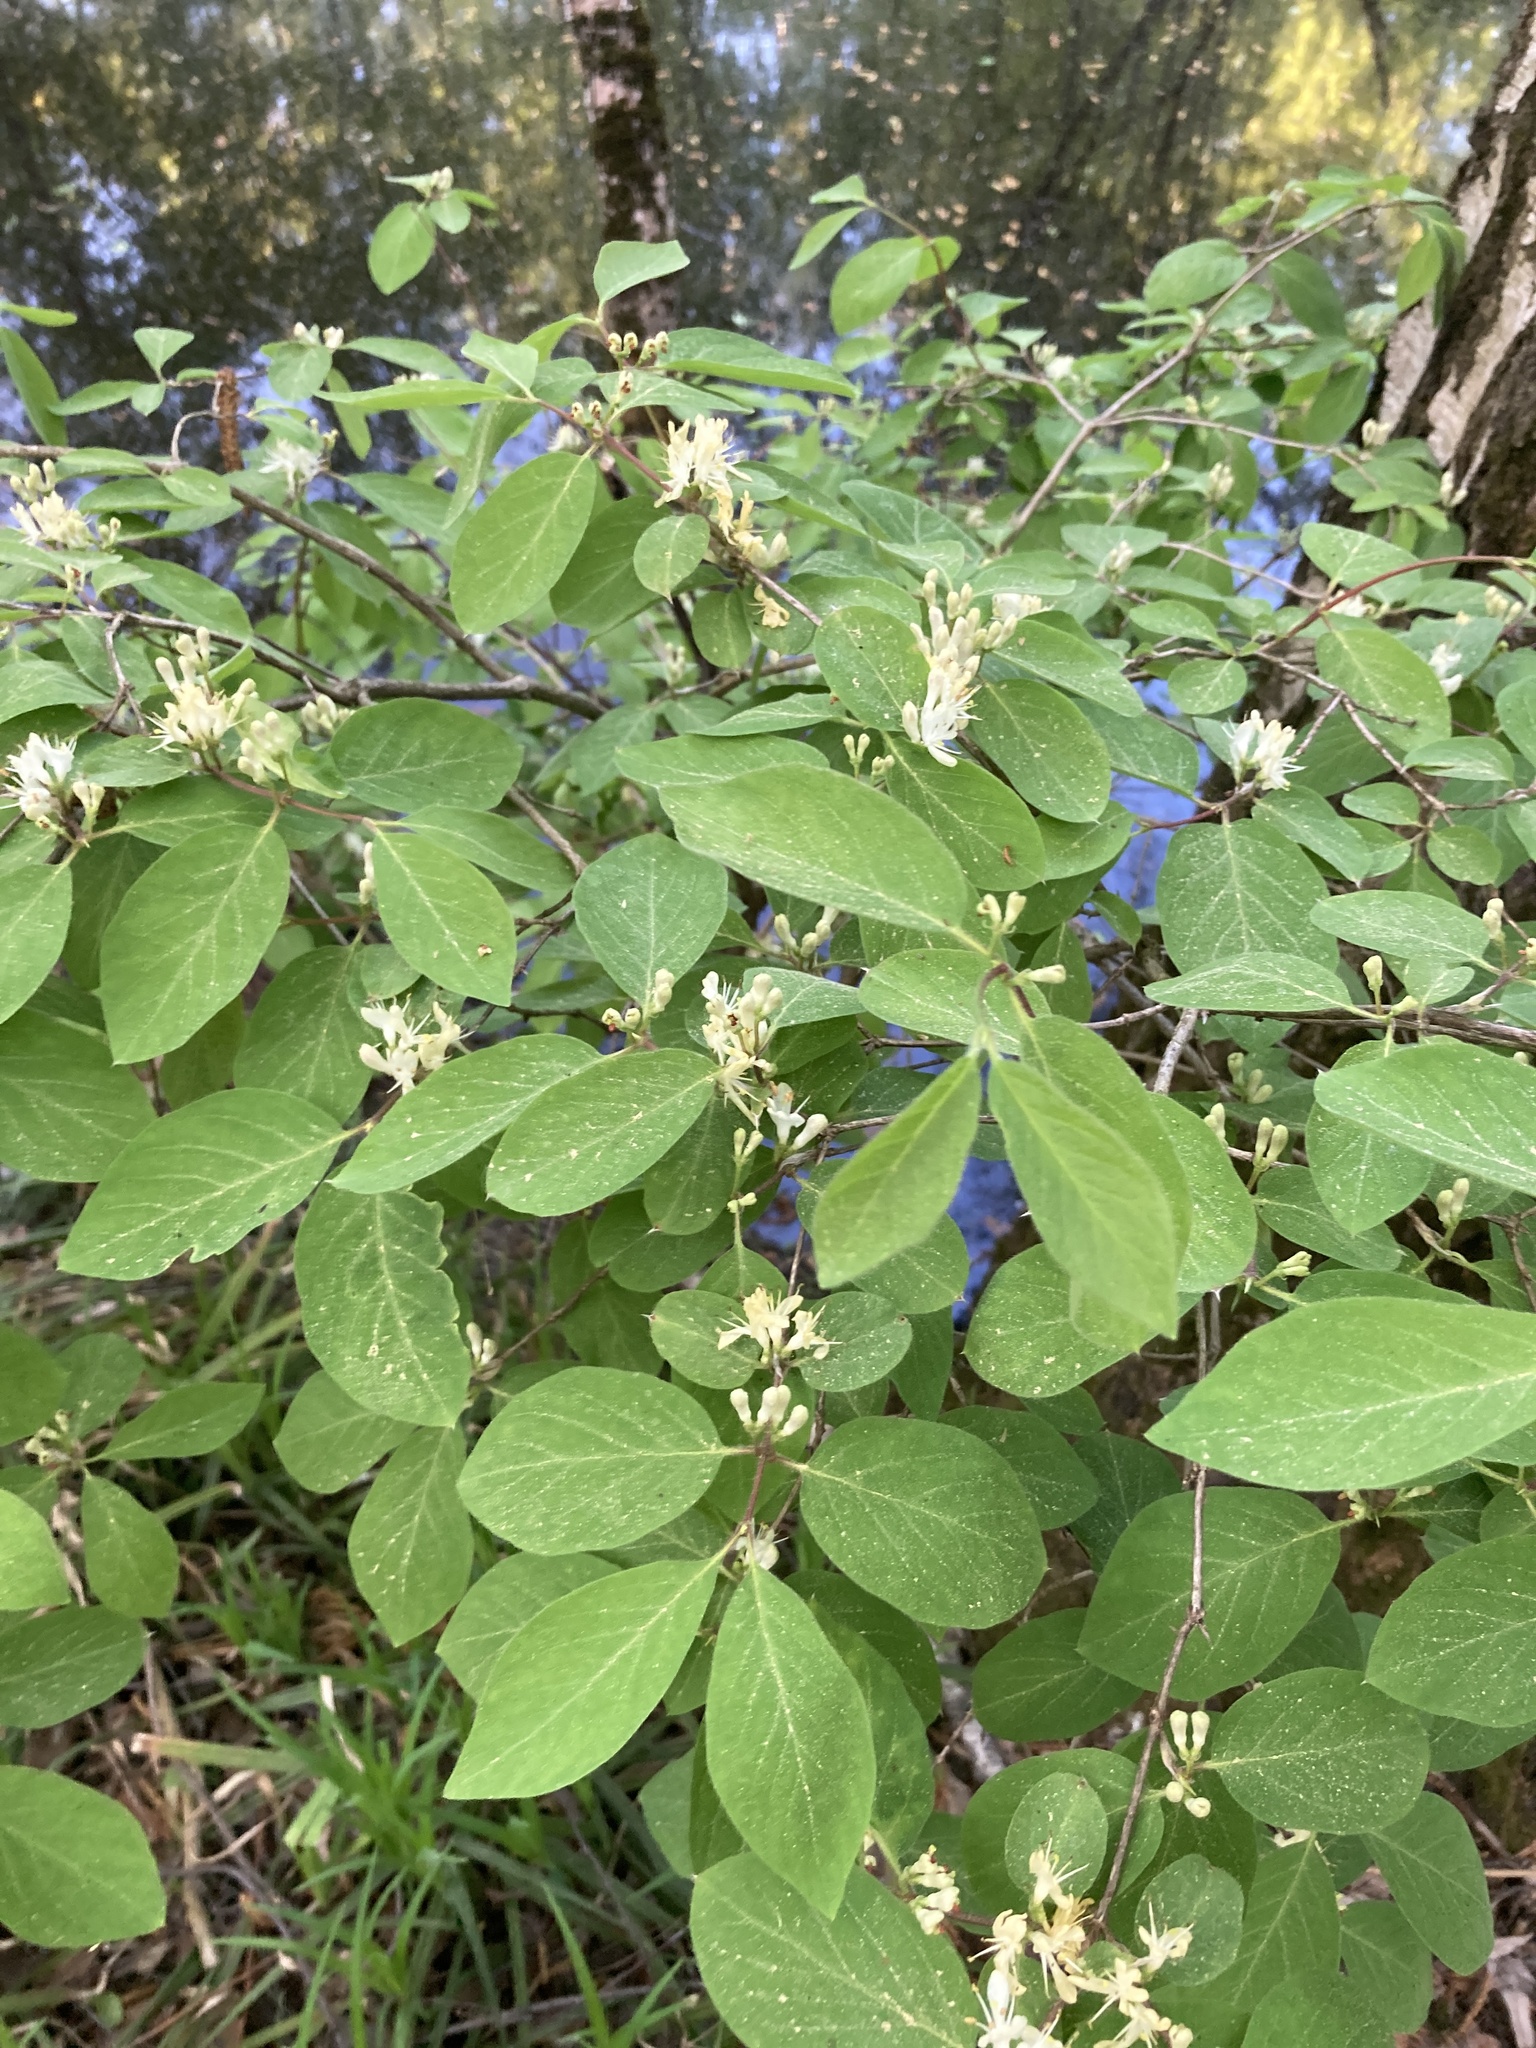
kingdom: Plantae
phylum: Tracheophyta
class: Magnoliopsida
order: Dipsacales
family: Caprifoliaceae
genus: Lonicera
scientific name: Lonicera xylosteum
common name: Fly honeysuckle
